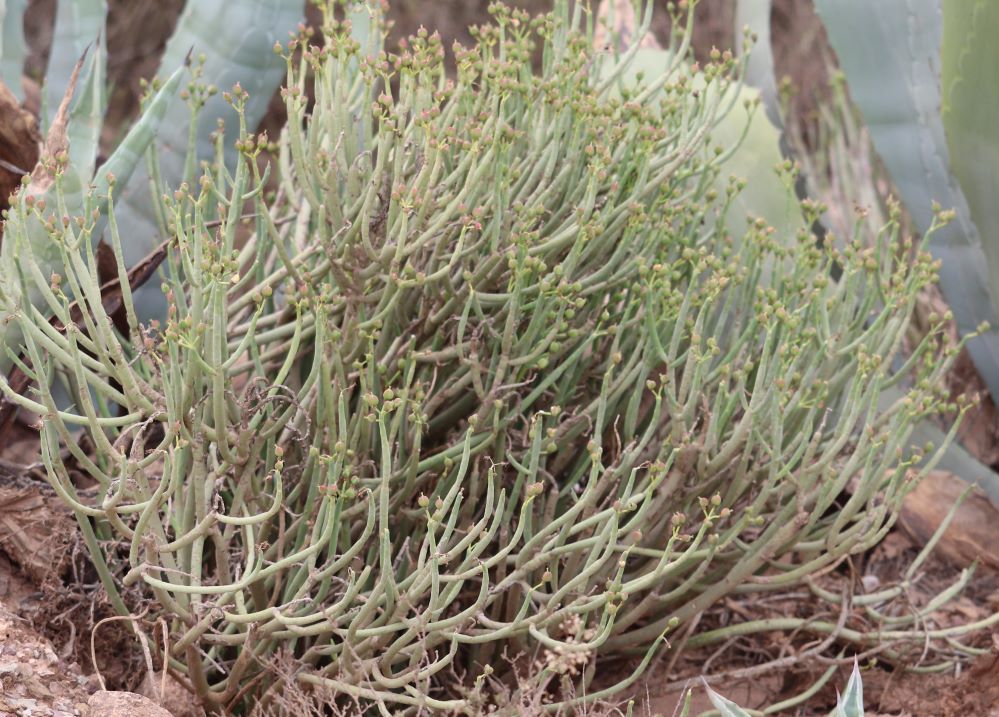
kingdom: Plantae
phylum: Tracheophyta
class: Magnoliopsida
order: Malpighiales
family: Euphorbiaceae
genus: Euphorbia
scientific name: Euphorbia mauritanica
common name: Jackal's-food
